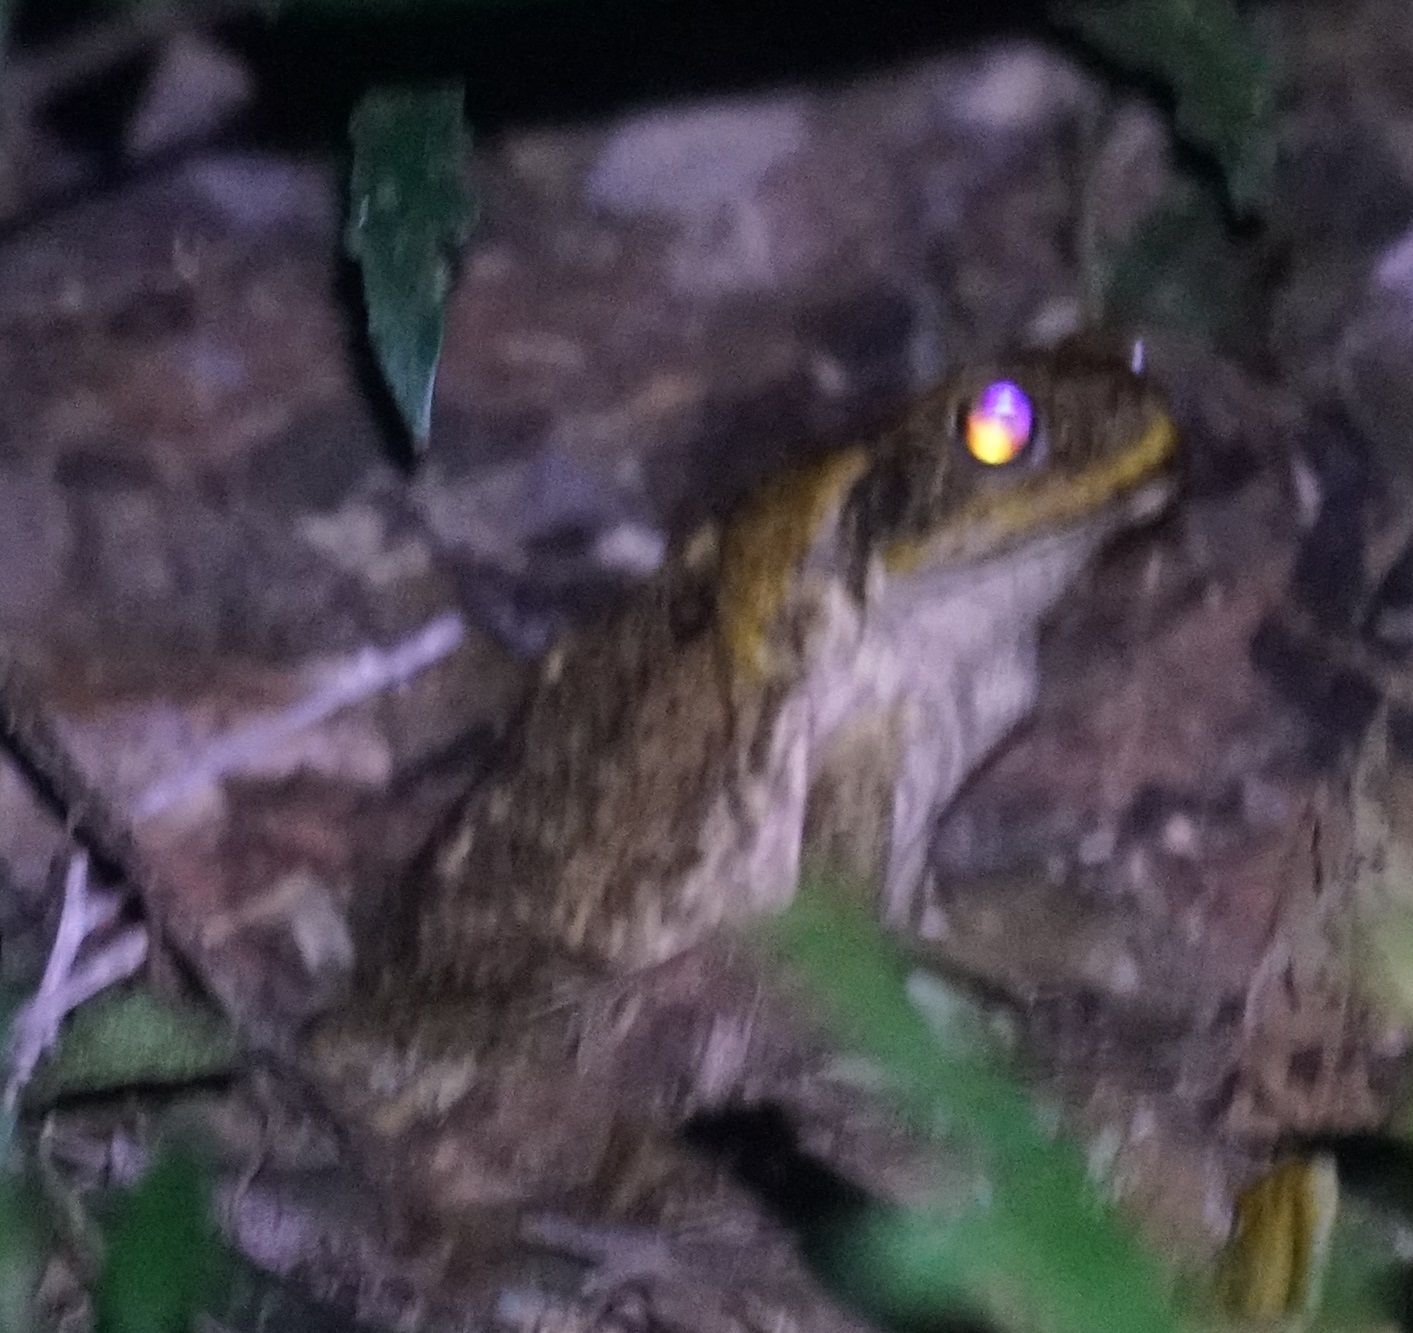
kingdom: Animalia
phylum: Chordata
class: Amphibia
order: Anura
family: Bufonidae
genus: Rhinella
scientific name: Rhinella marina
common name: Cane toad
